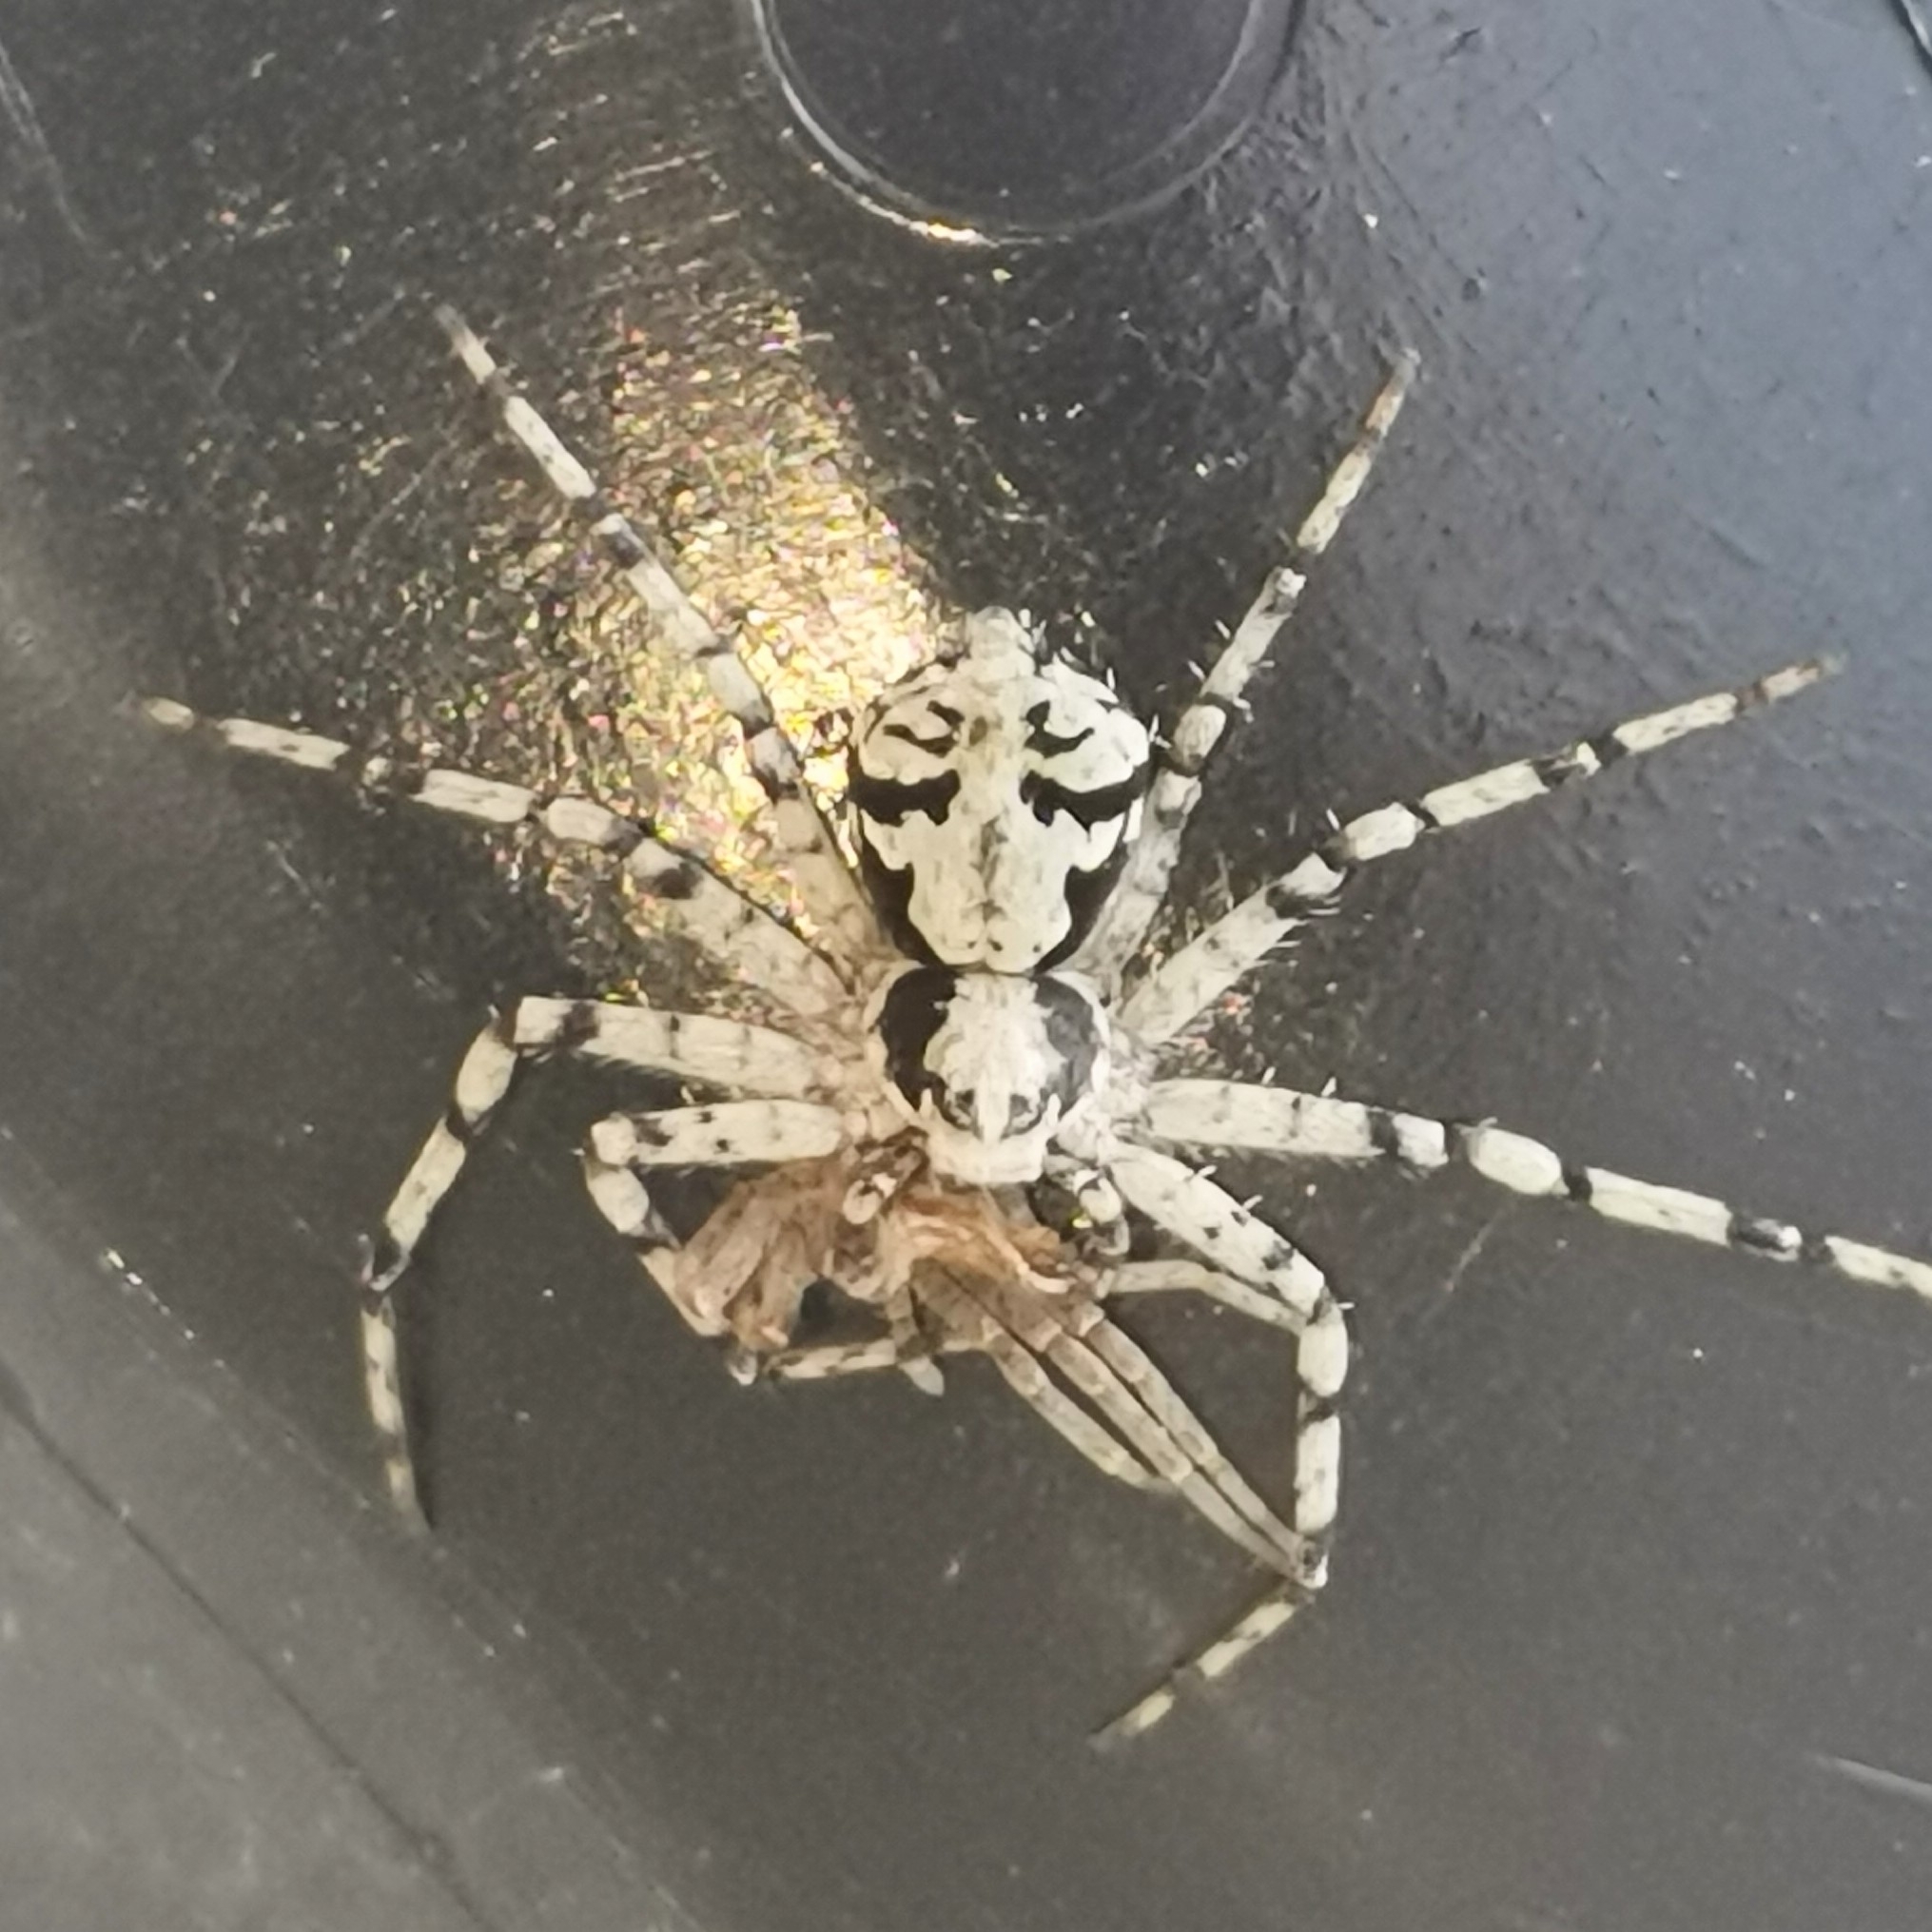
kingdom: Animalia
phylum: Arthropoda
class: Arachnida
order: Araneae
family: Philodromidae
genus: Philodromus
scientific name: Philodromus margaritatus
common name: Lichen running-spider
